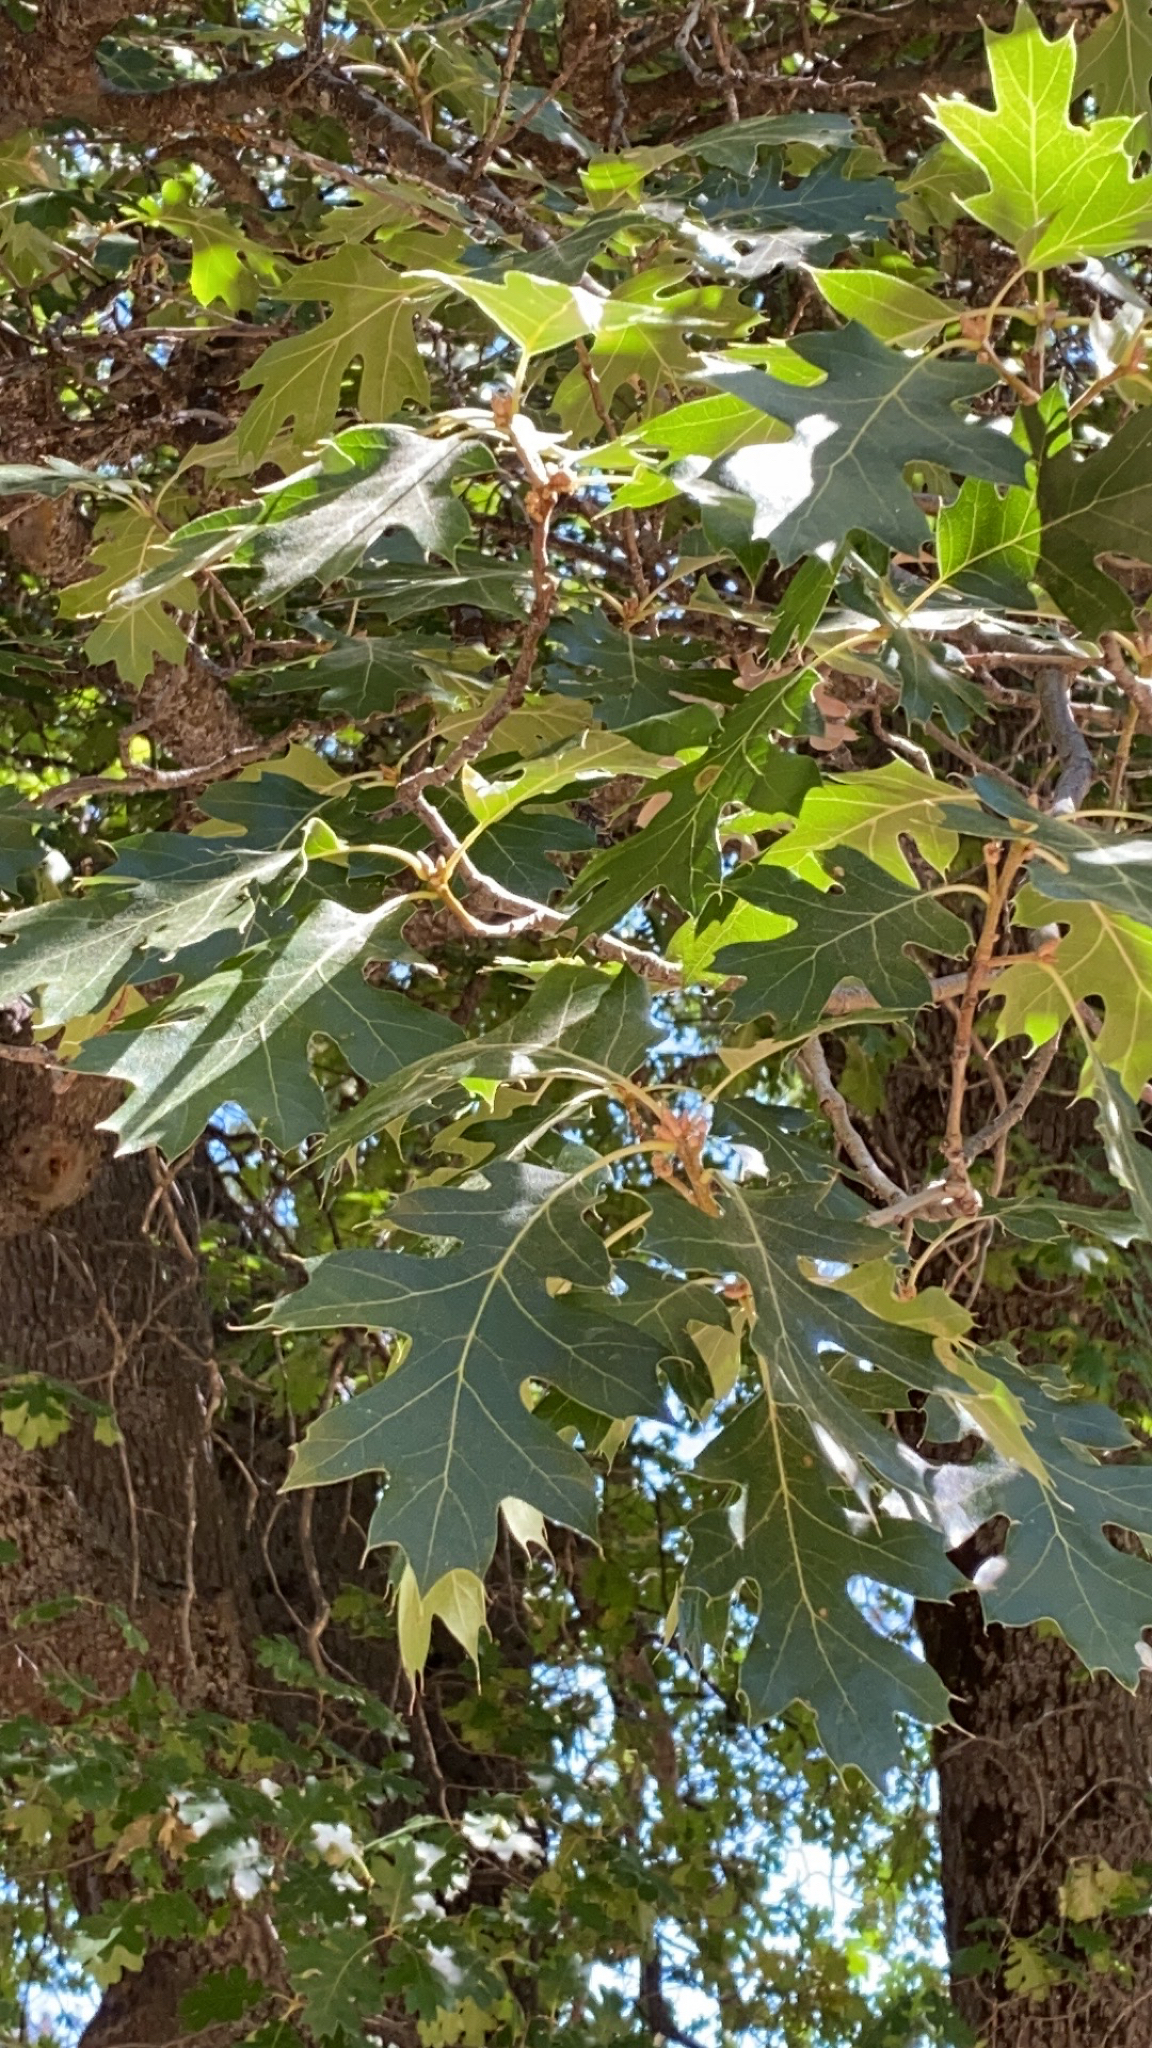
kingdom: Plantae
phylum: Tracheophyta
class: Magnoliopsida
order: Fagales
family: Fagaceae
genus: Quercus
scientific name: Quercus kelloggii
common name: California black oak
